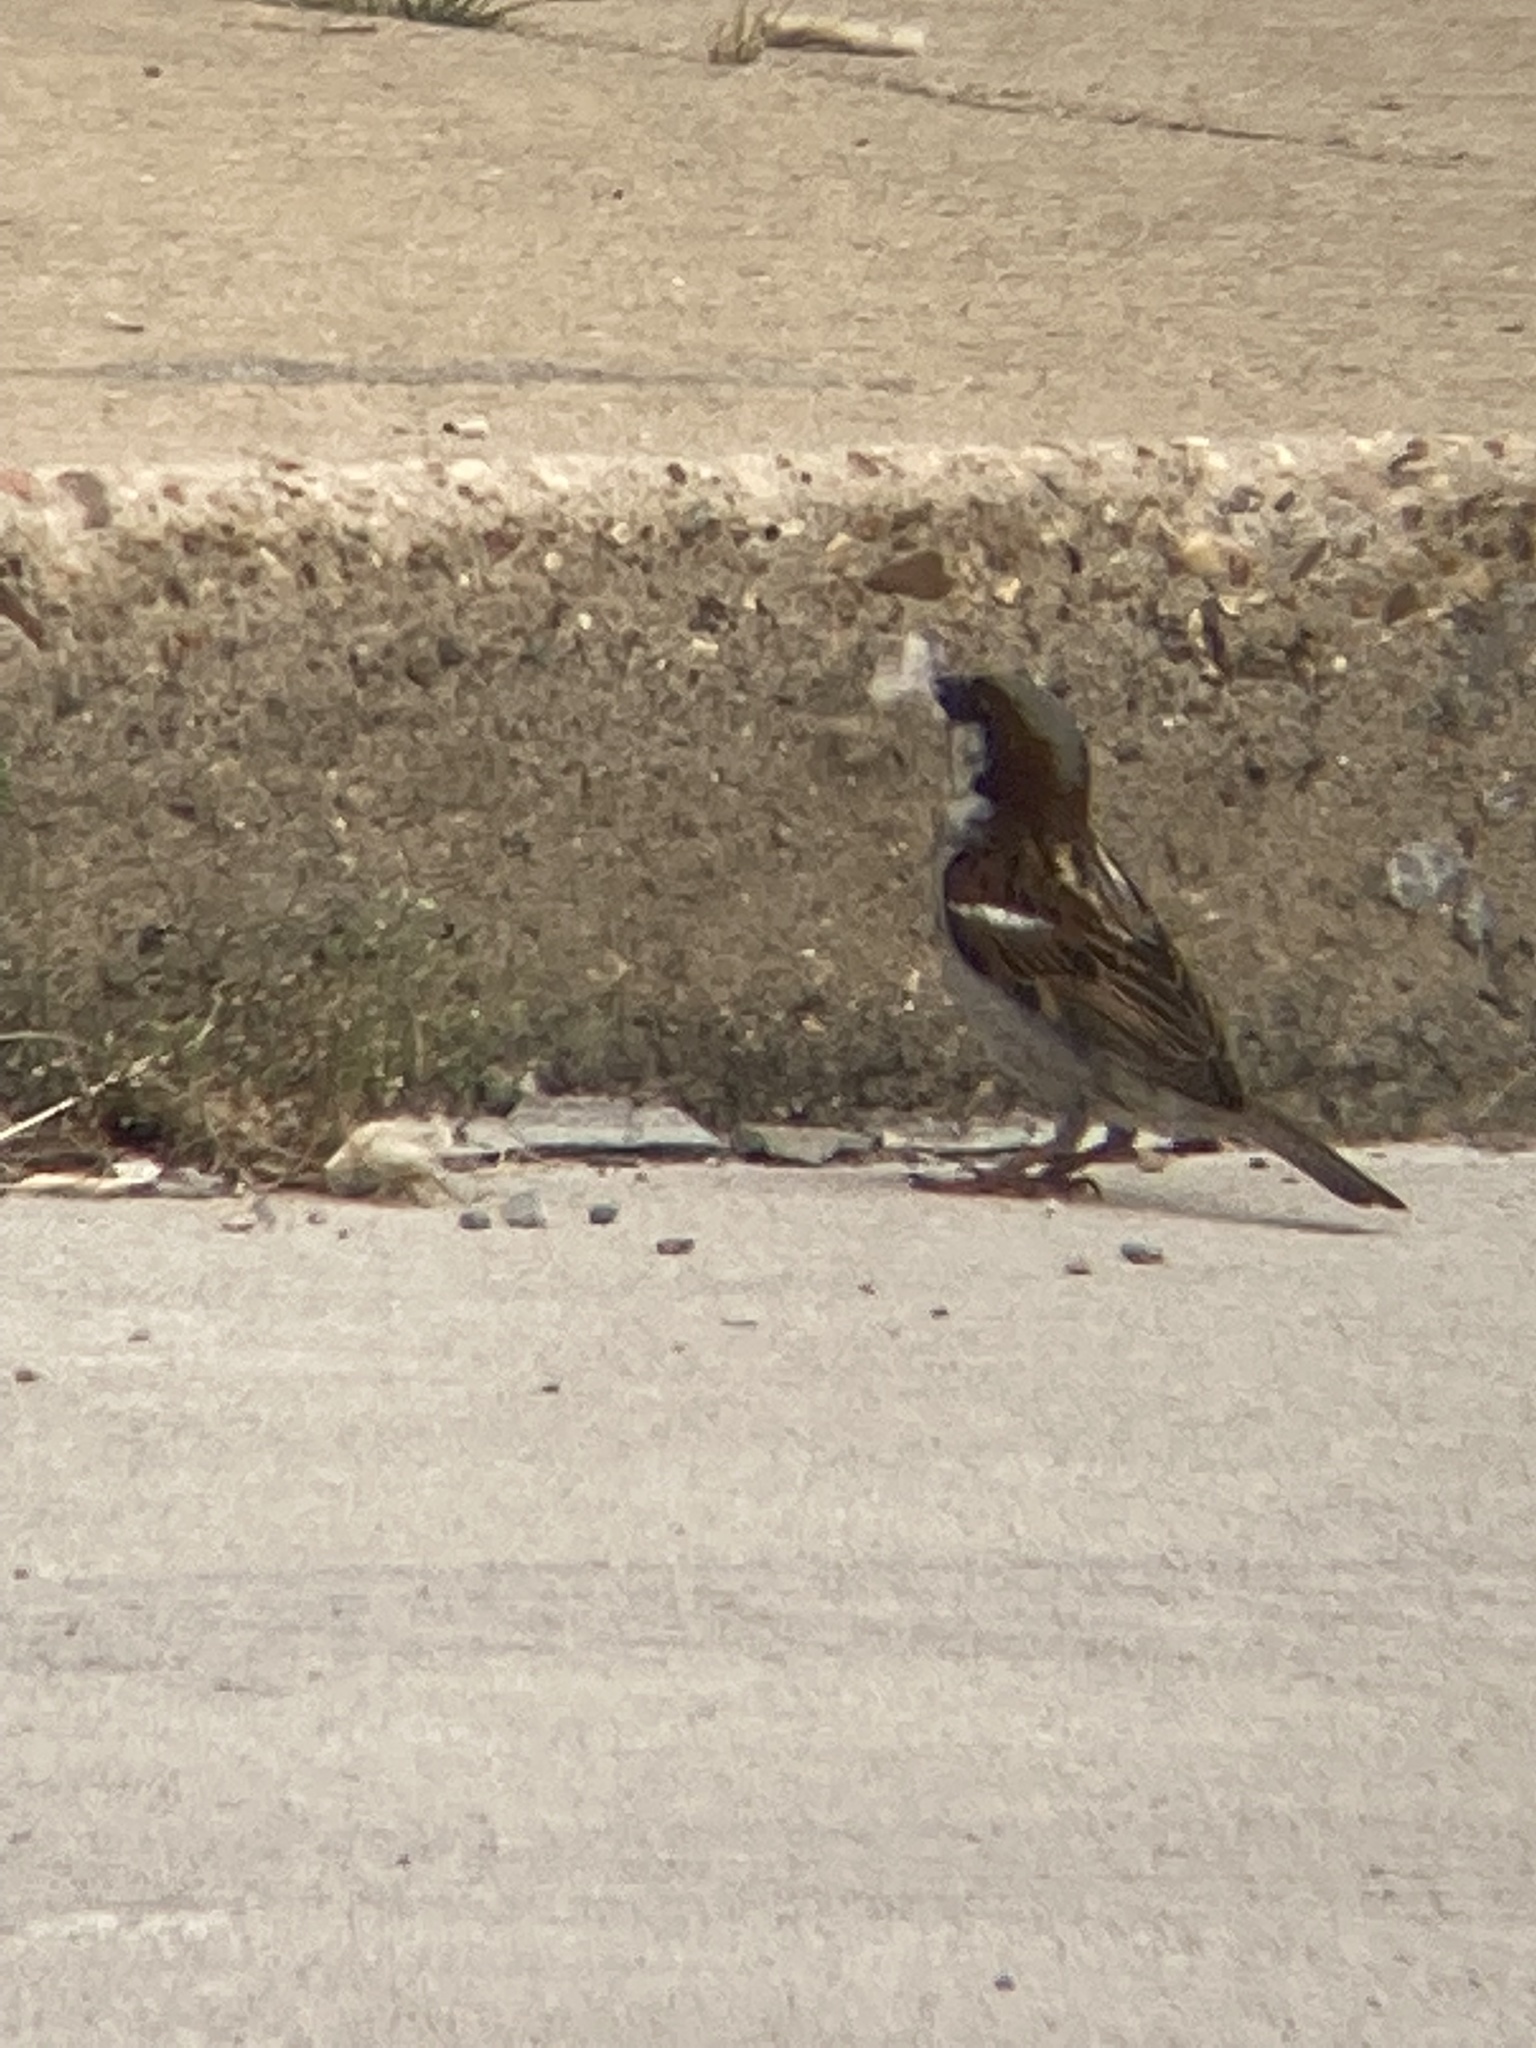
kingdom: Animalia
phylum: Chordata
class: Aves
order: Passeriformes
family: Passeridae
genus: Passer
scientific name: Passer domesticus
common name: House sparrow
